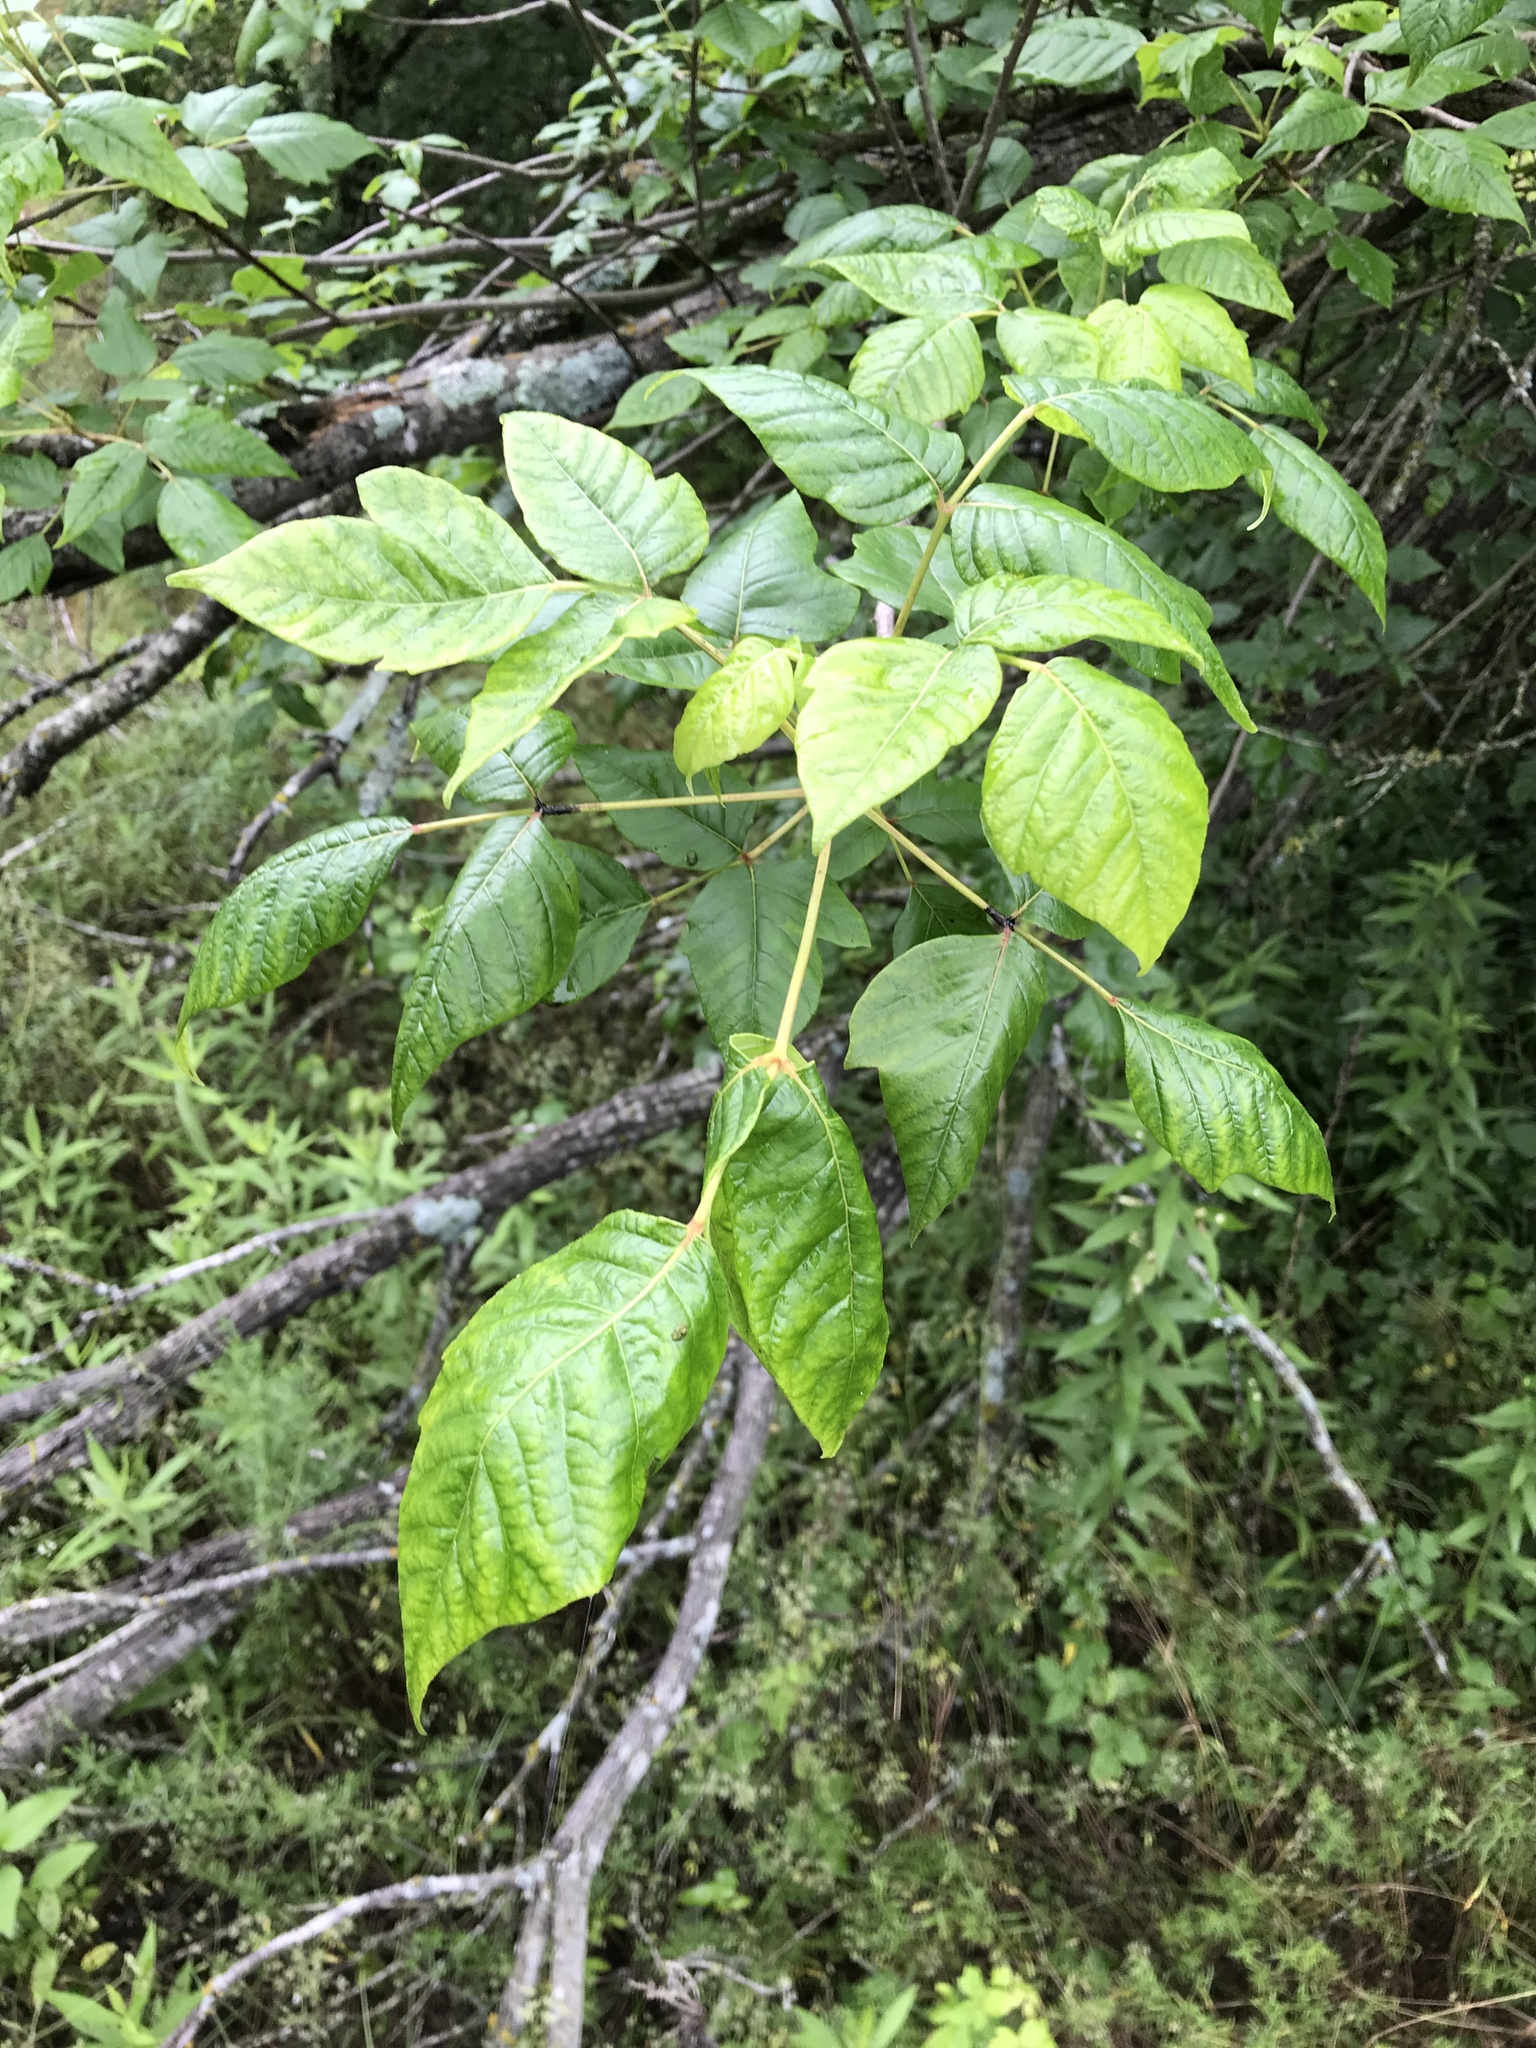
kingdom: Plantae
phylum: Tracheophyta
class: Magnoliopsida
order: Sapindales
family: Anacardiaceae
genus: Toxicodendron
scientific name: Toxicodendron radicans
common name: Poison ivy
